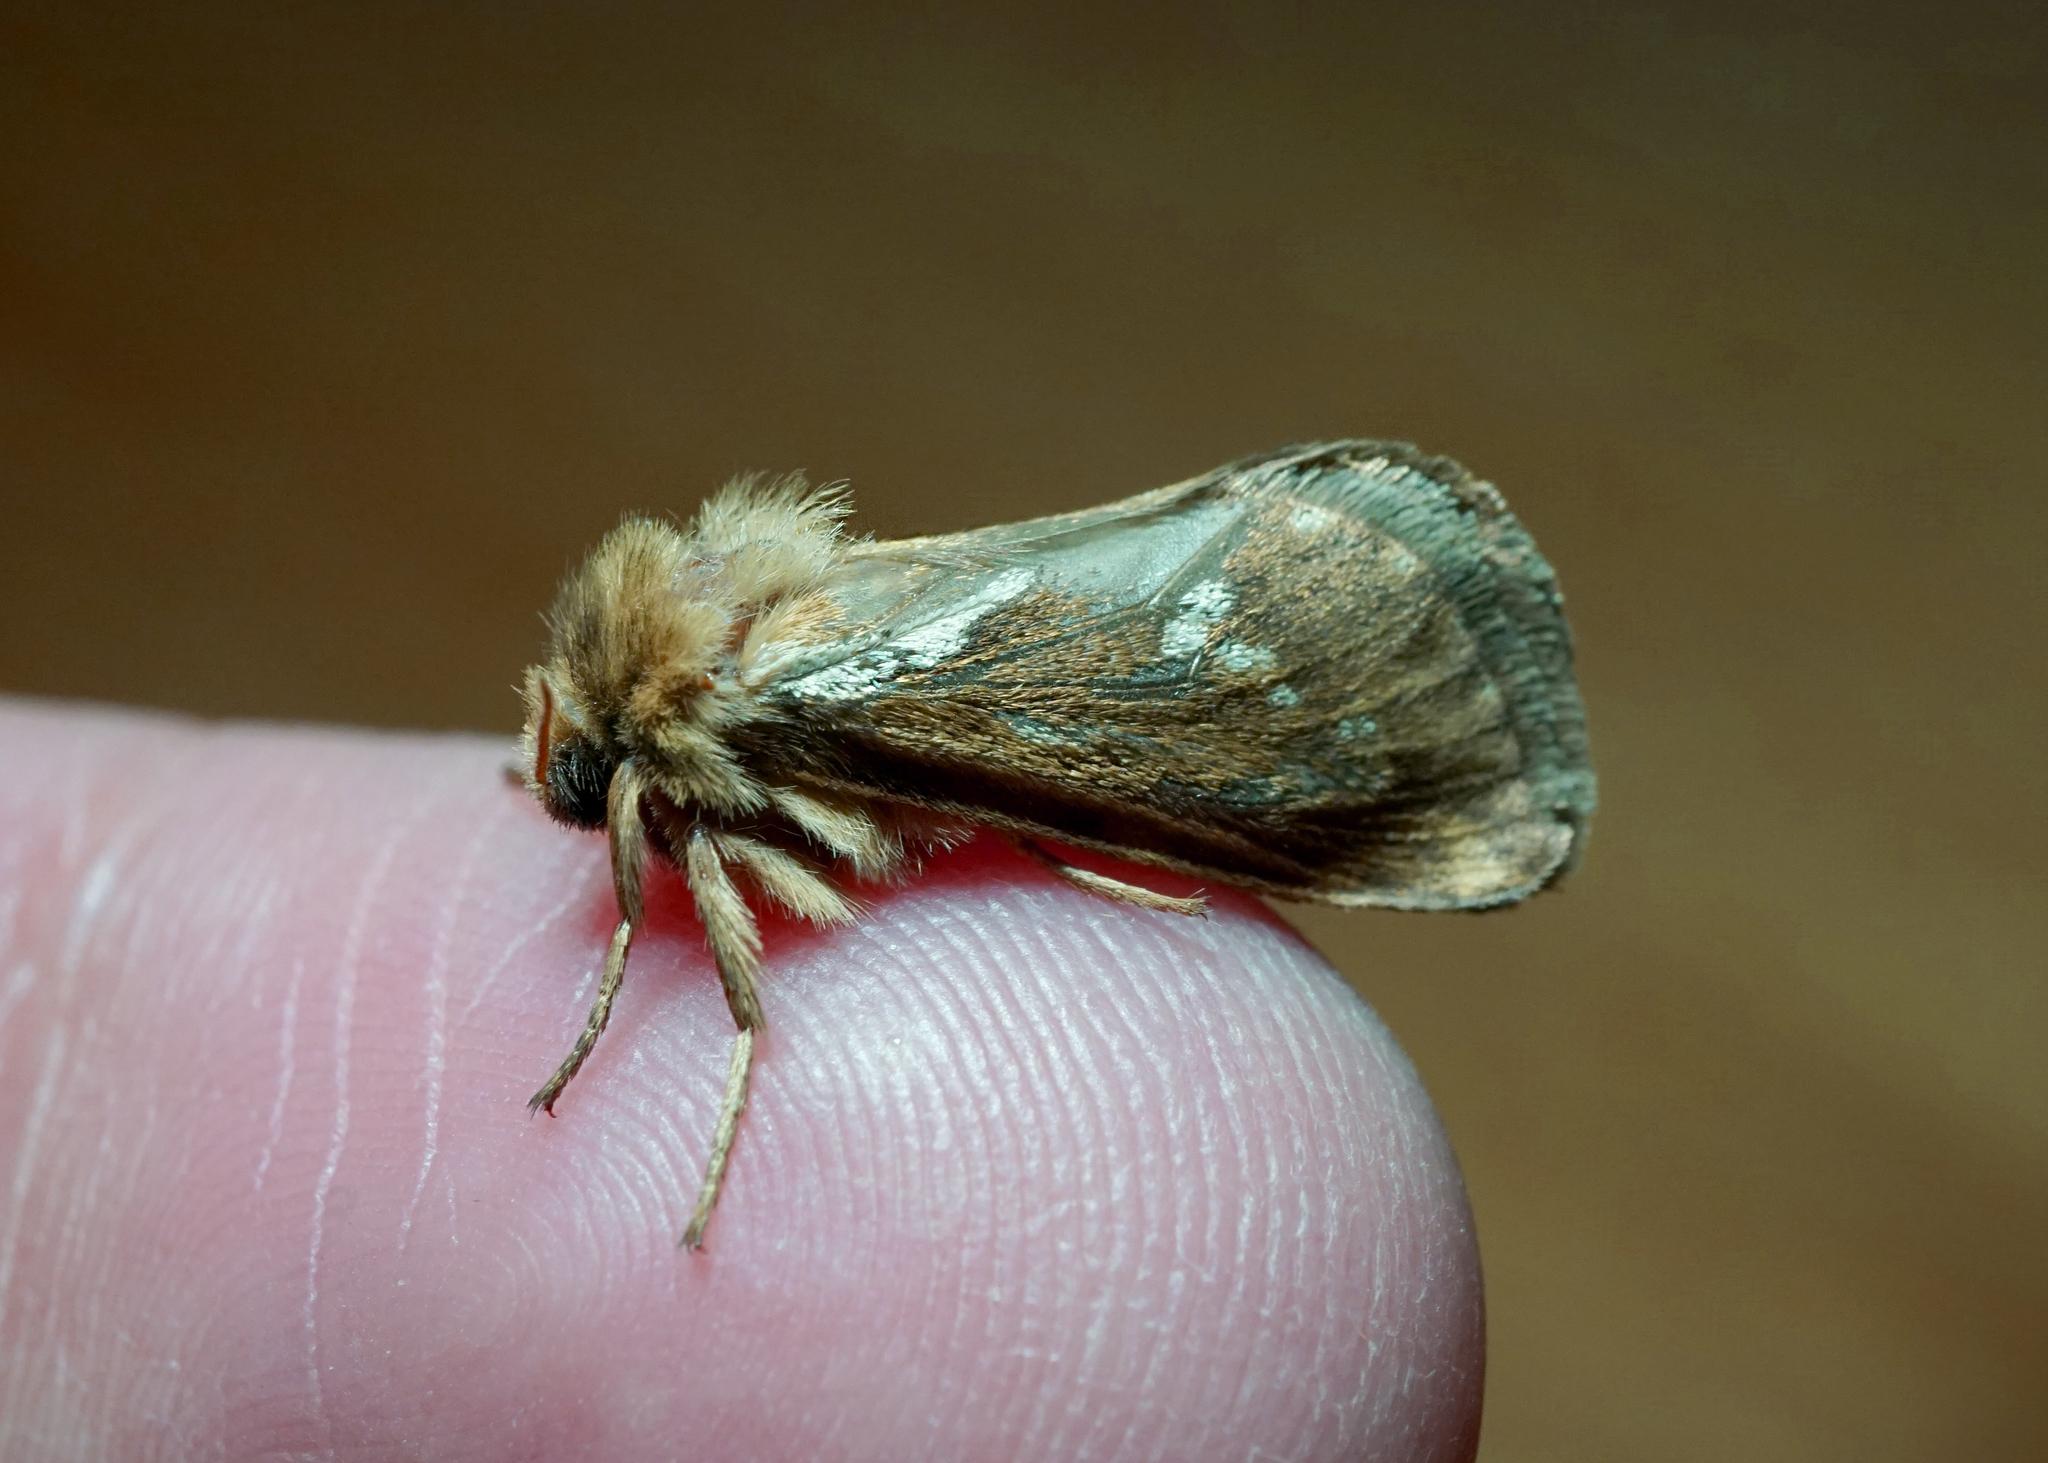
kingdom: Animalia
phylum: Arthropoda
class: Insecta
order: Lepidoptera
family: Hepialidae
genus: Korscheltellus
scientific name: Korscheltellus lupulina
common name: Common swift
